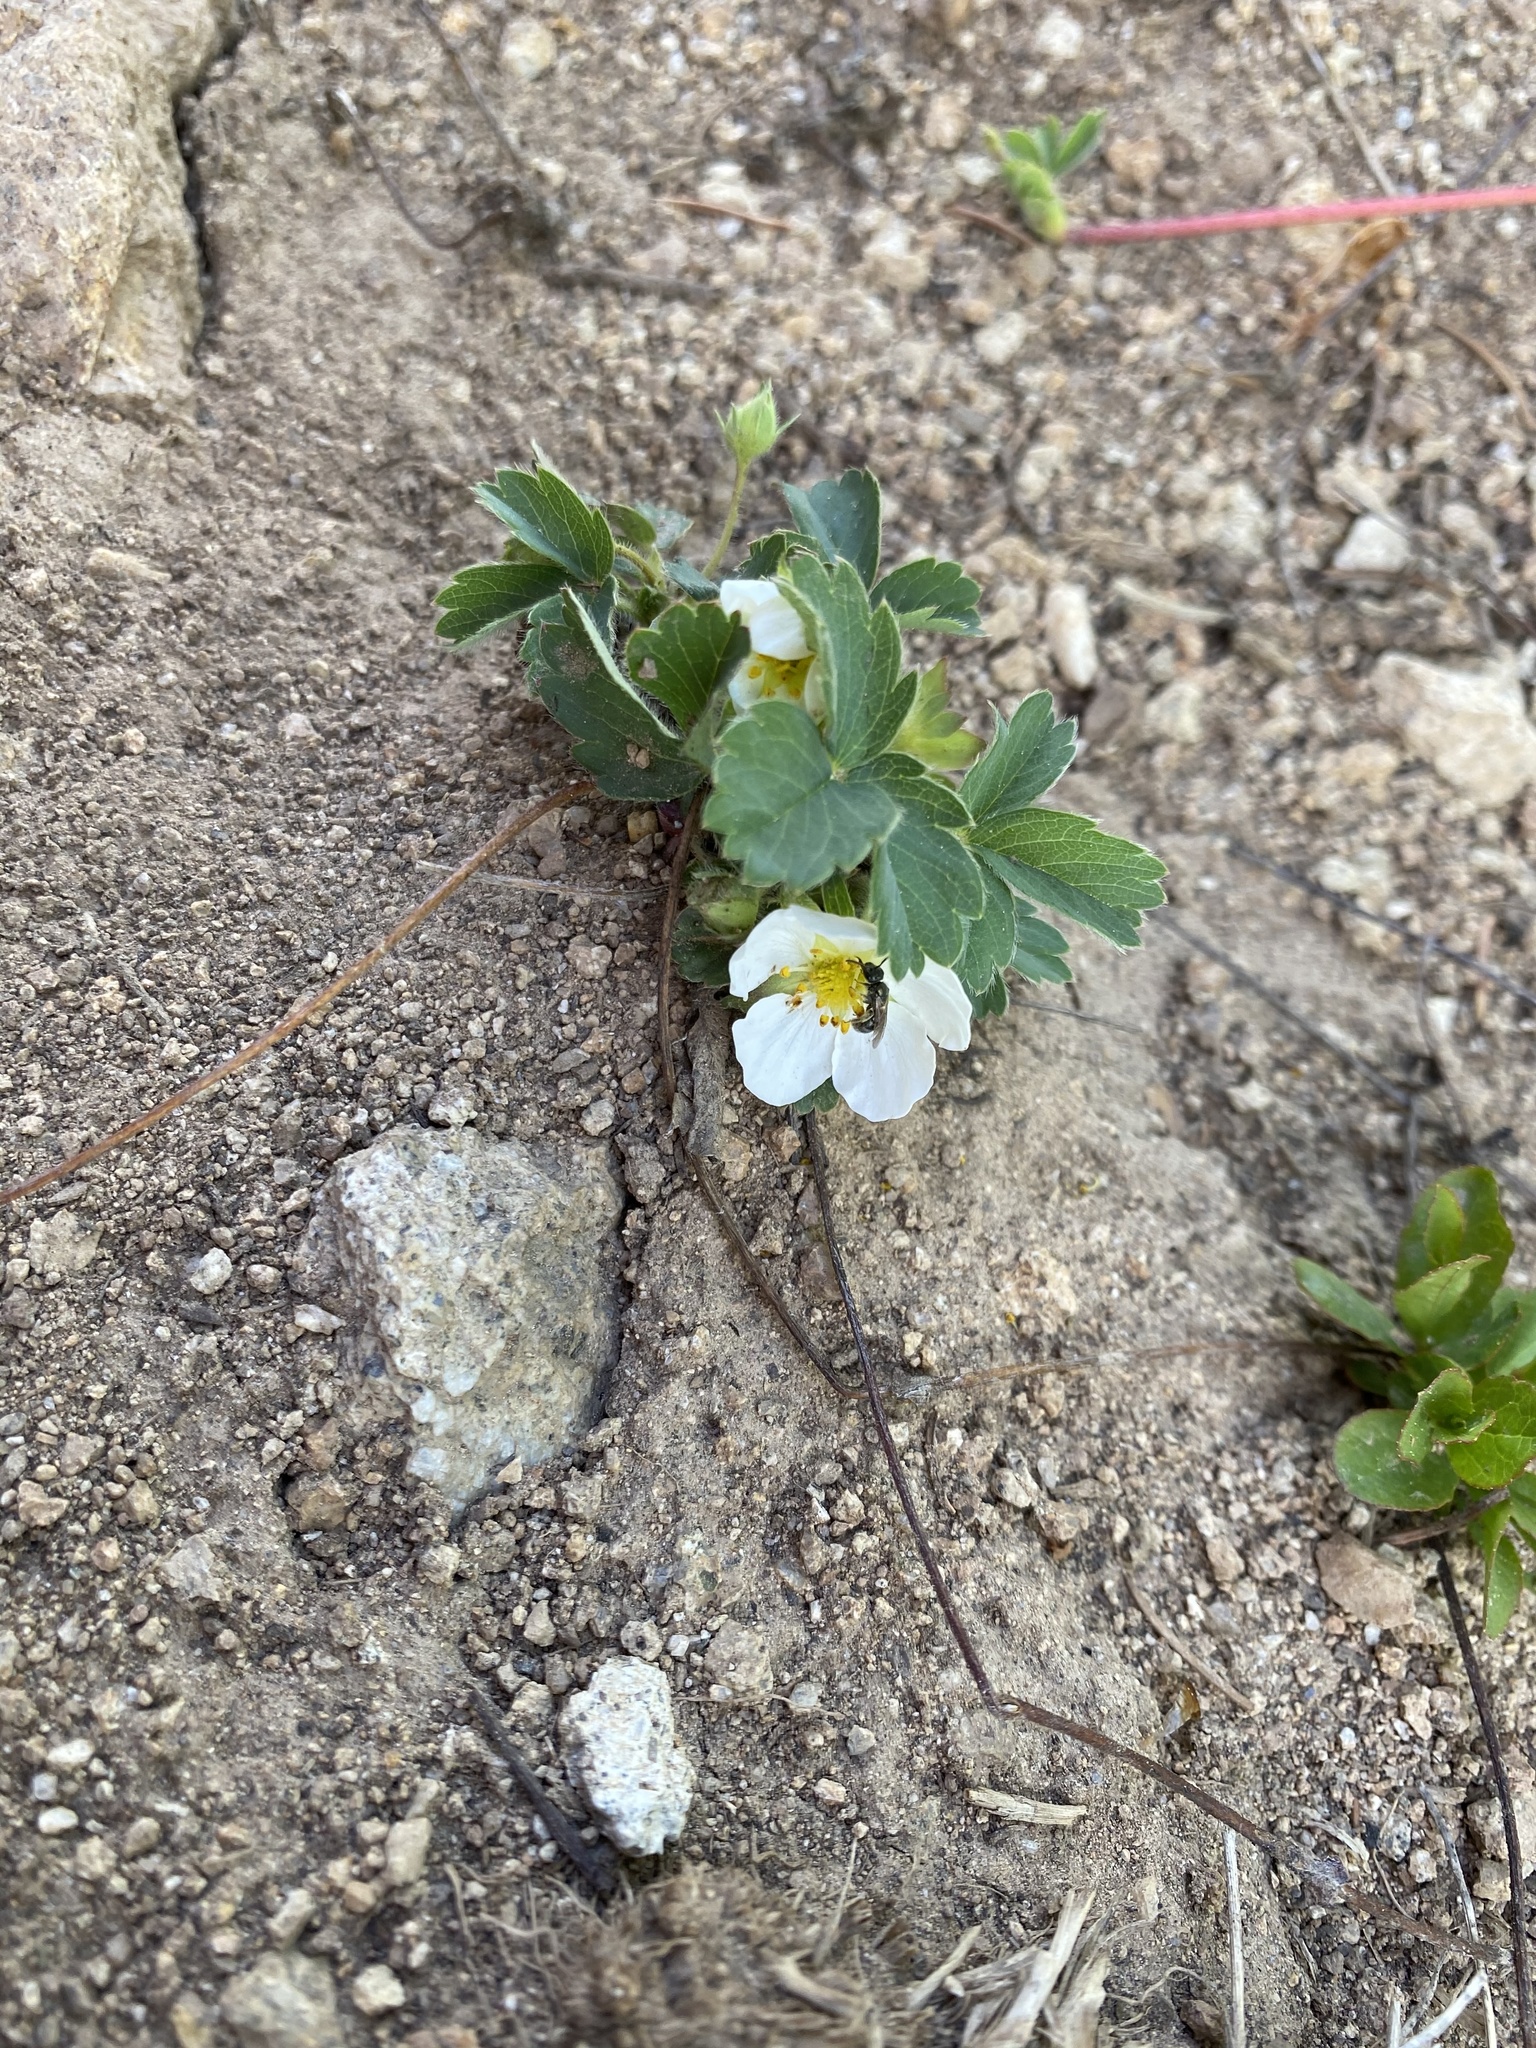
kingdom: Plantae
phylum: Tracheophyta
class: Magnoliopsida
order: Rosales
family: Rosaceae
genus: Fragaria
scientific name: Fragaria virginiana
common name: Thickleaved wild strawberry
